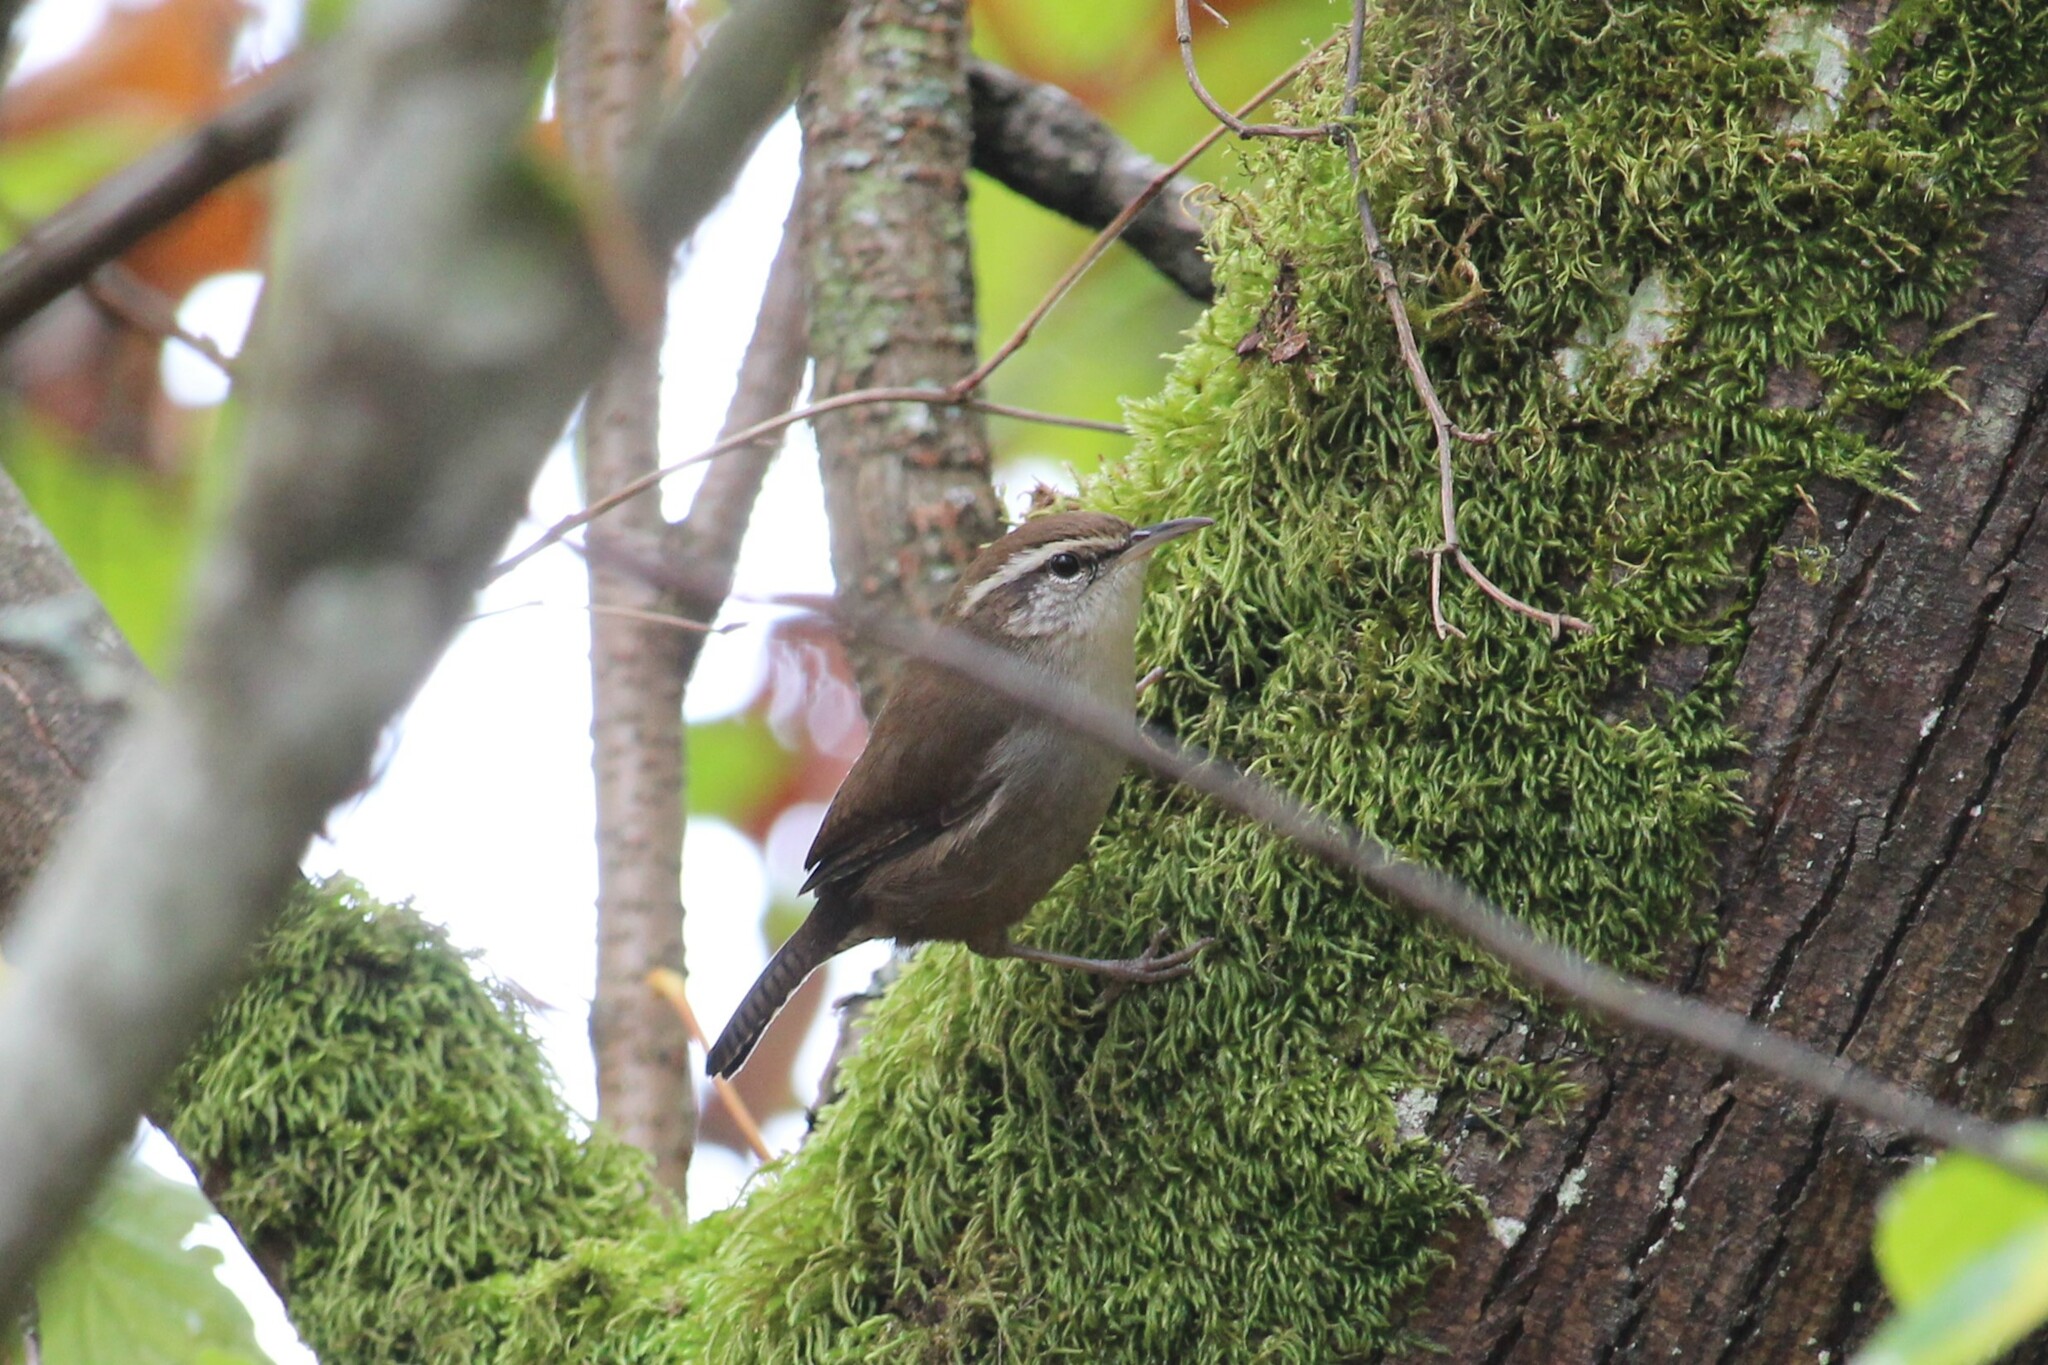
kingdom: Animalia
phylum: Chordata
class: Aves
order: Passeriformes
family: Troglodytidae
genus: Thryomanes
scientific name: Thryomanes bewickii
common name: Bewick's wren
